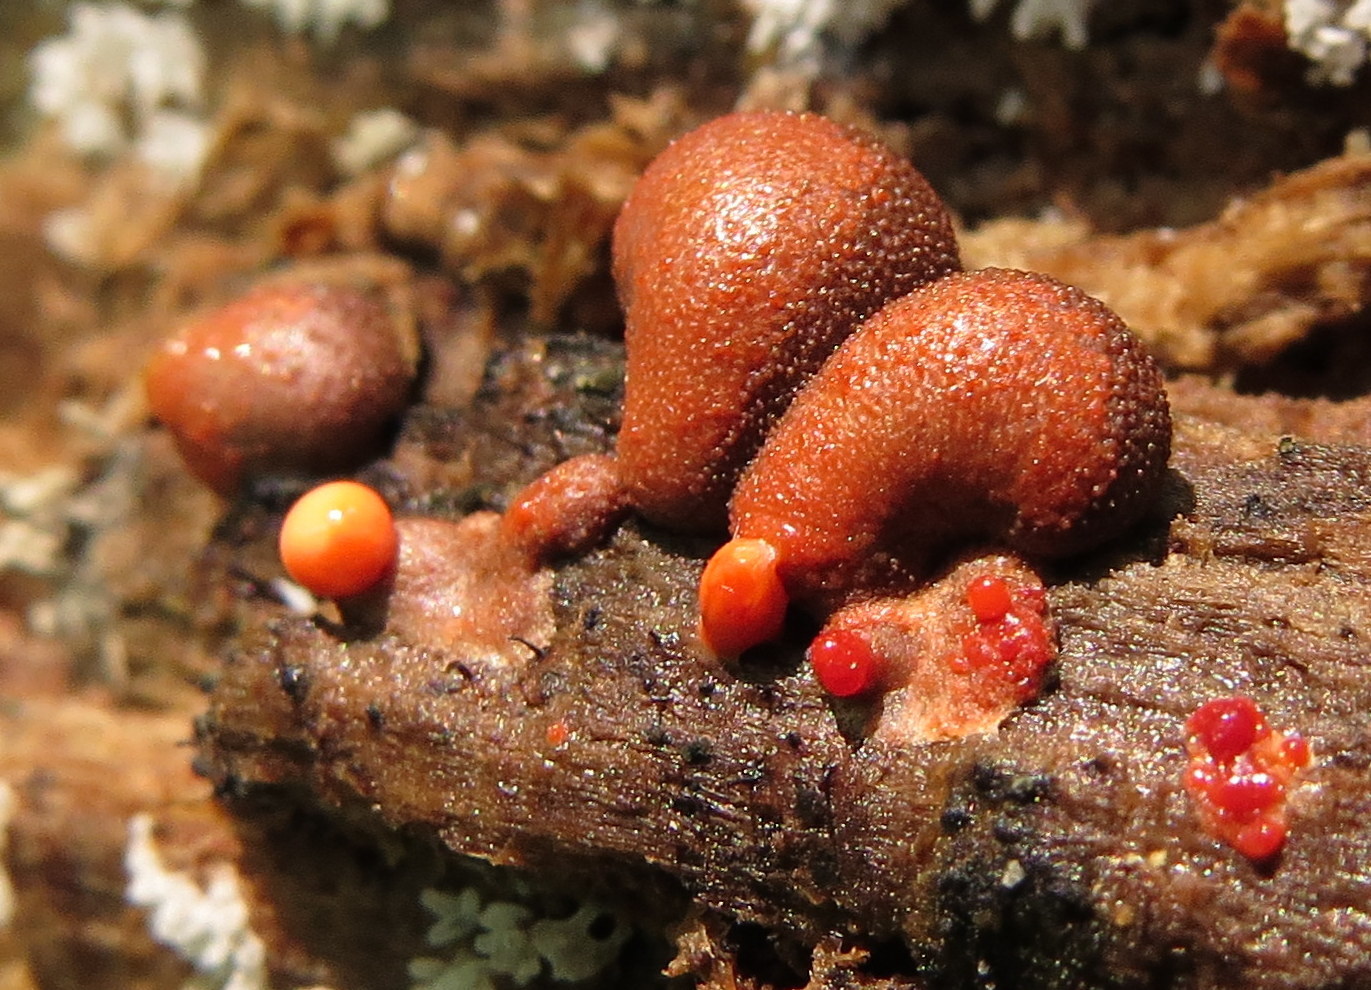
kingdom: Protozoa
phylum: Mycetozoa
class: Myxomycetes
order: Cribrariales
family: Tubiferaceae
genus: Lycogala
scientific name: Lycogala epidendrum
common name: Wolf's milk
